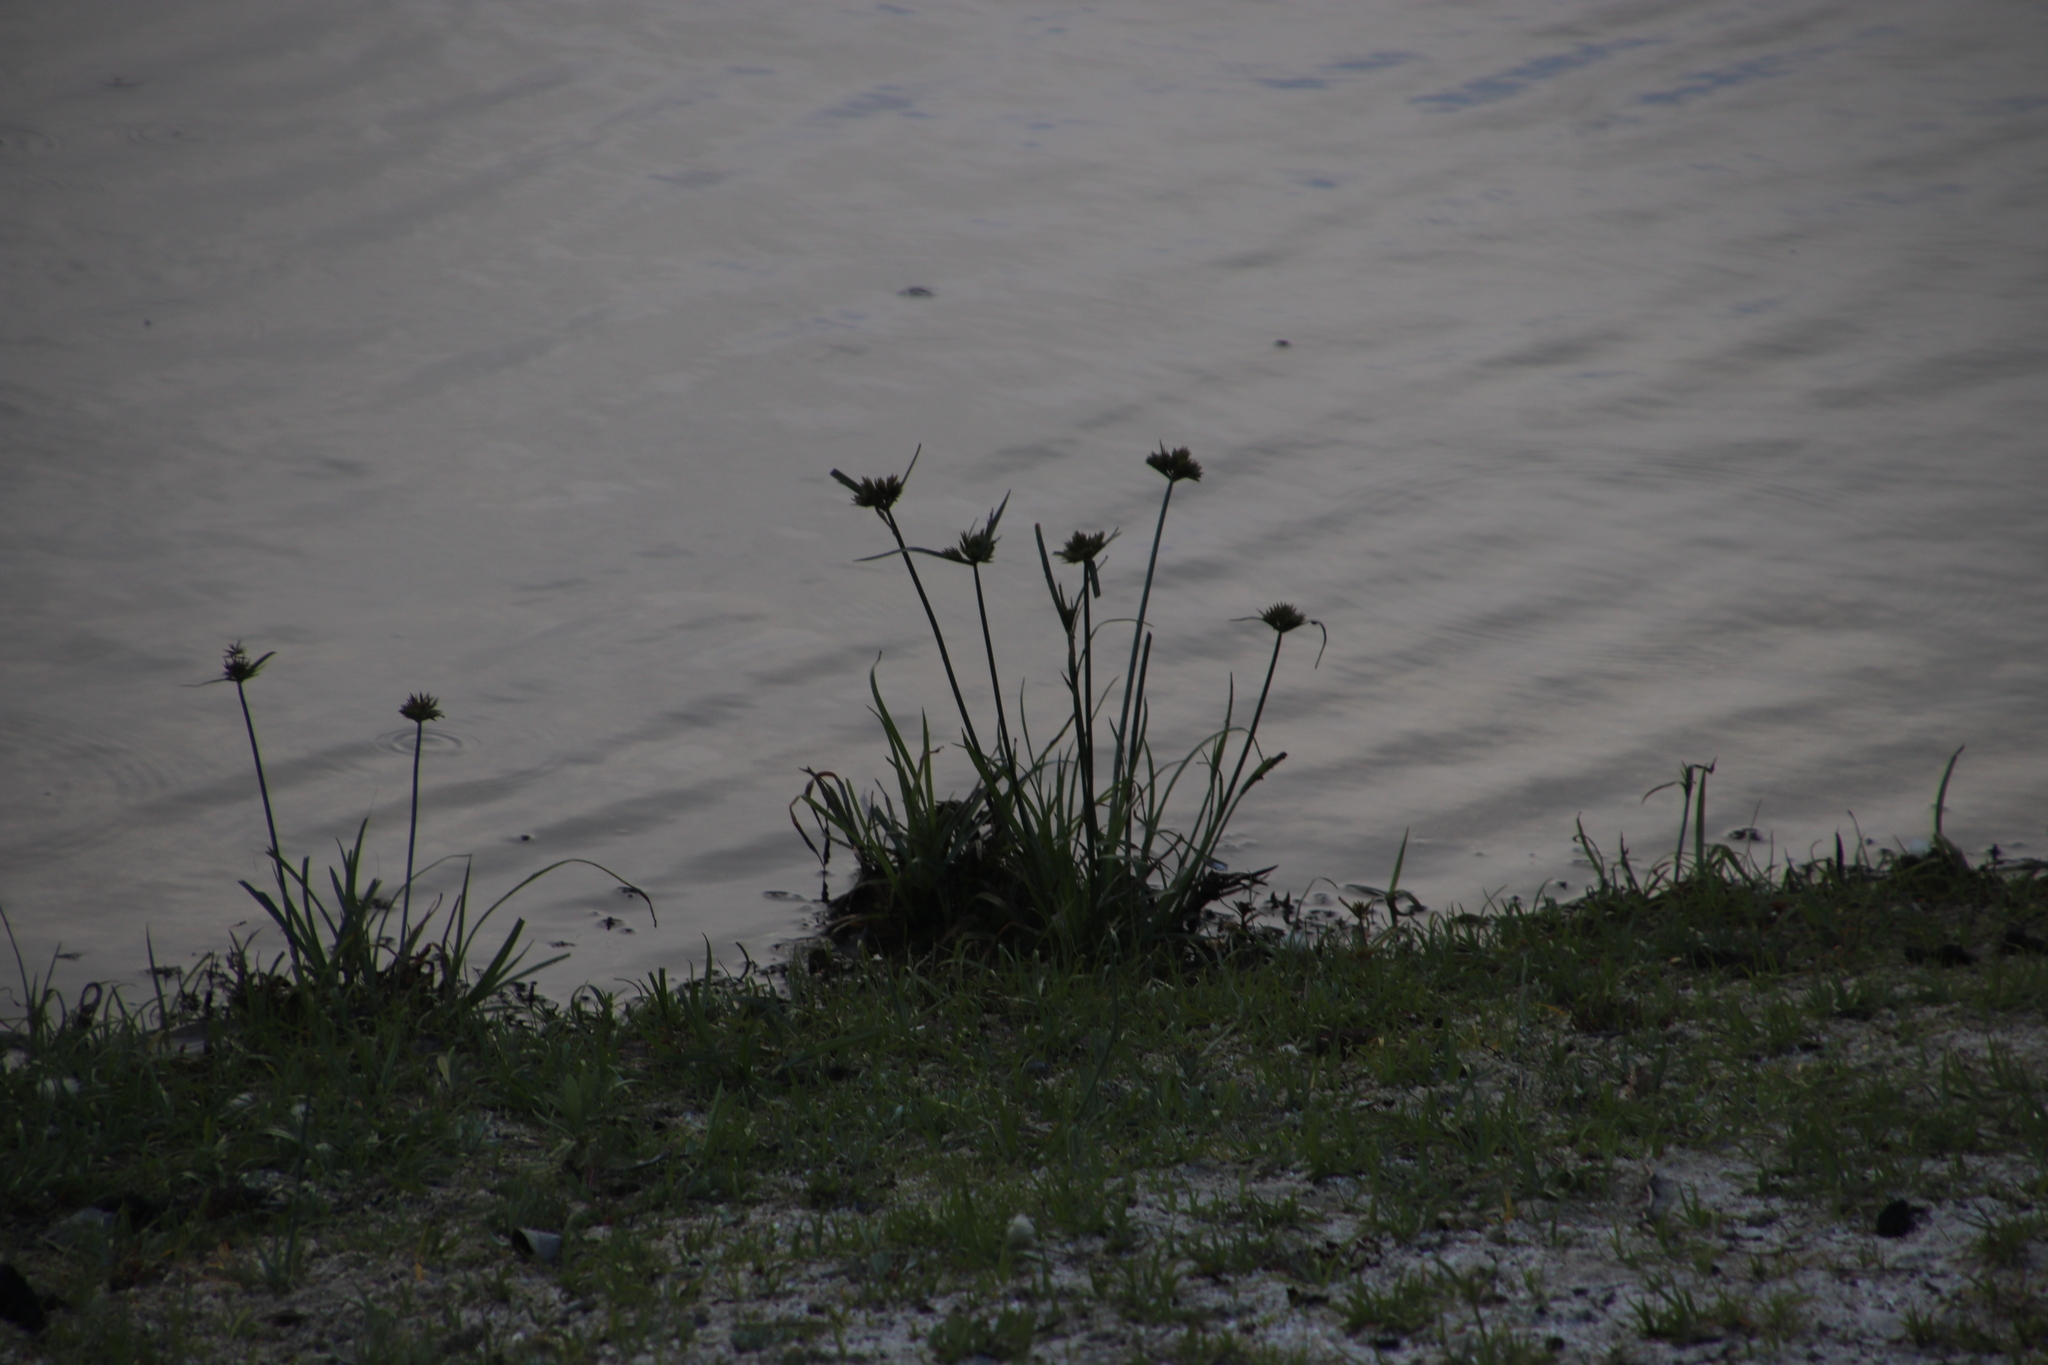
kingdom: Plantae
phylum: Tracheophyta
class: Liliopsida
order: Poales
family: Cyperaceae
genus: Cyperus
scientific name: Cyperus polystachyos
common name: Bunchy flat sedge
